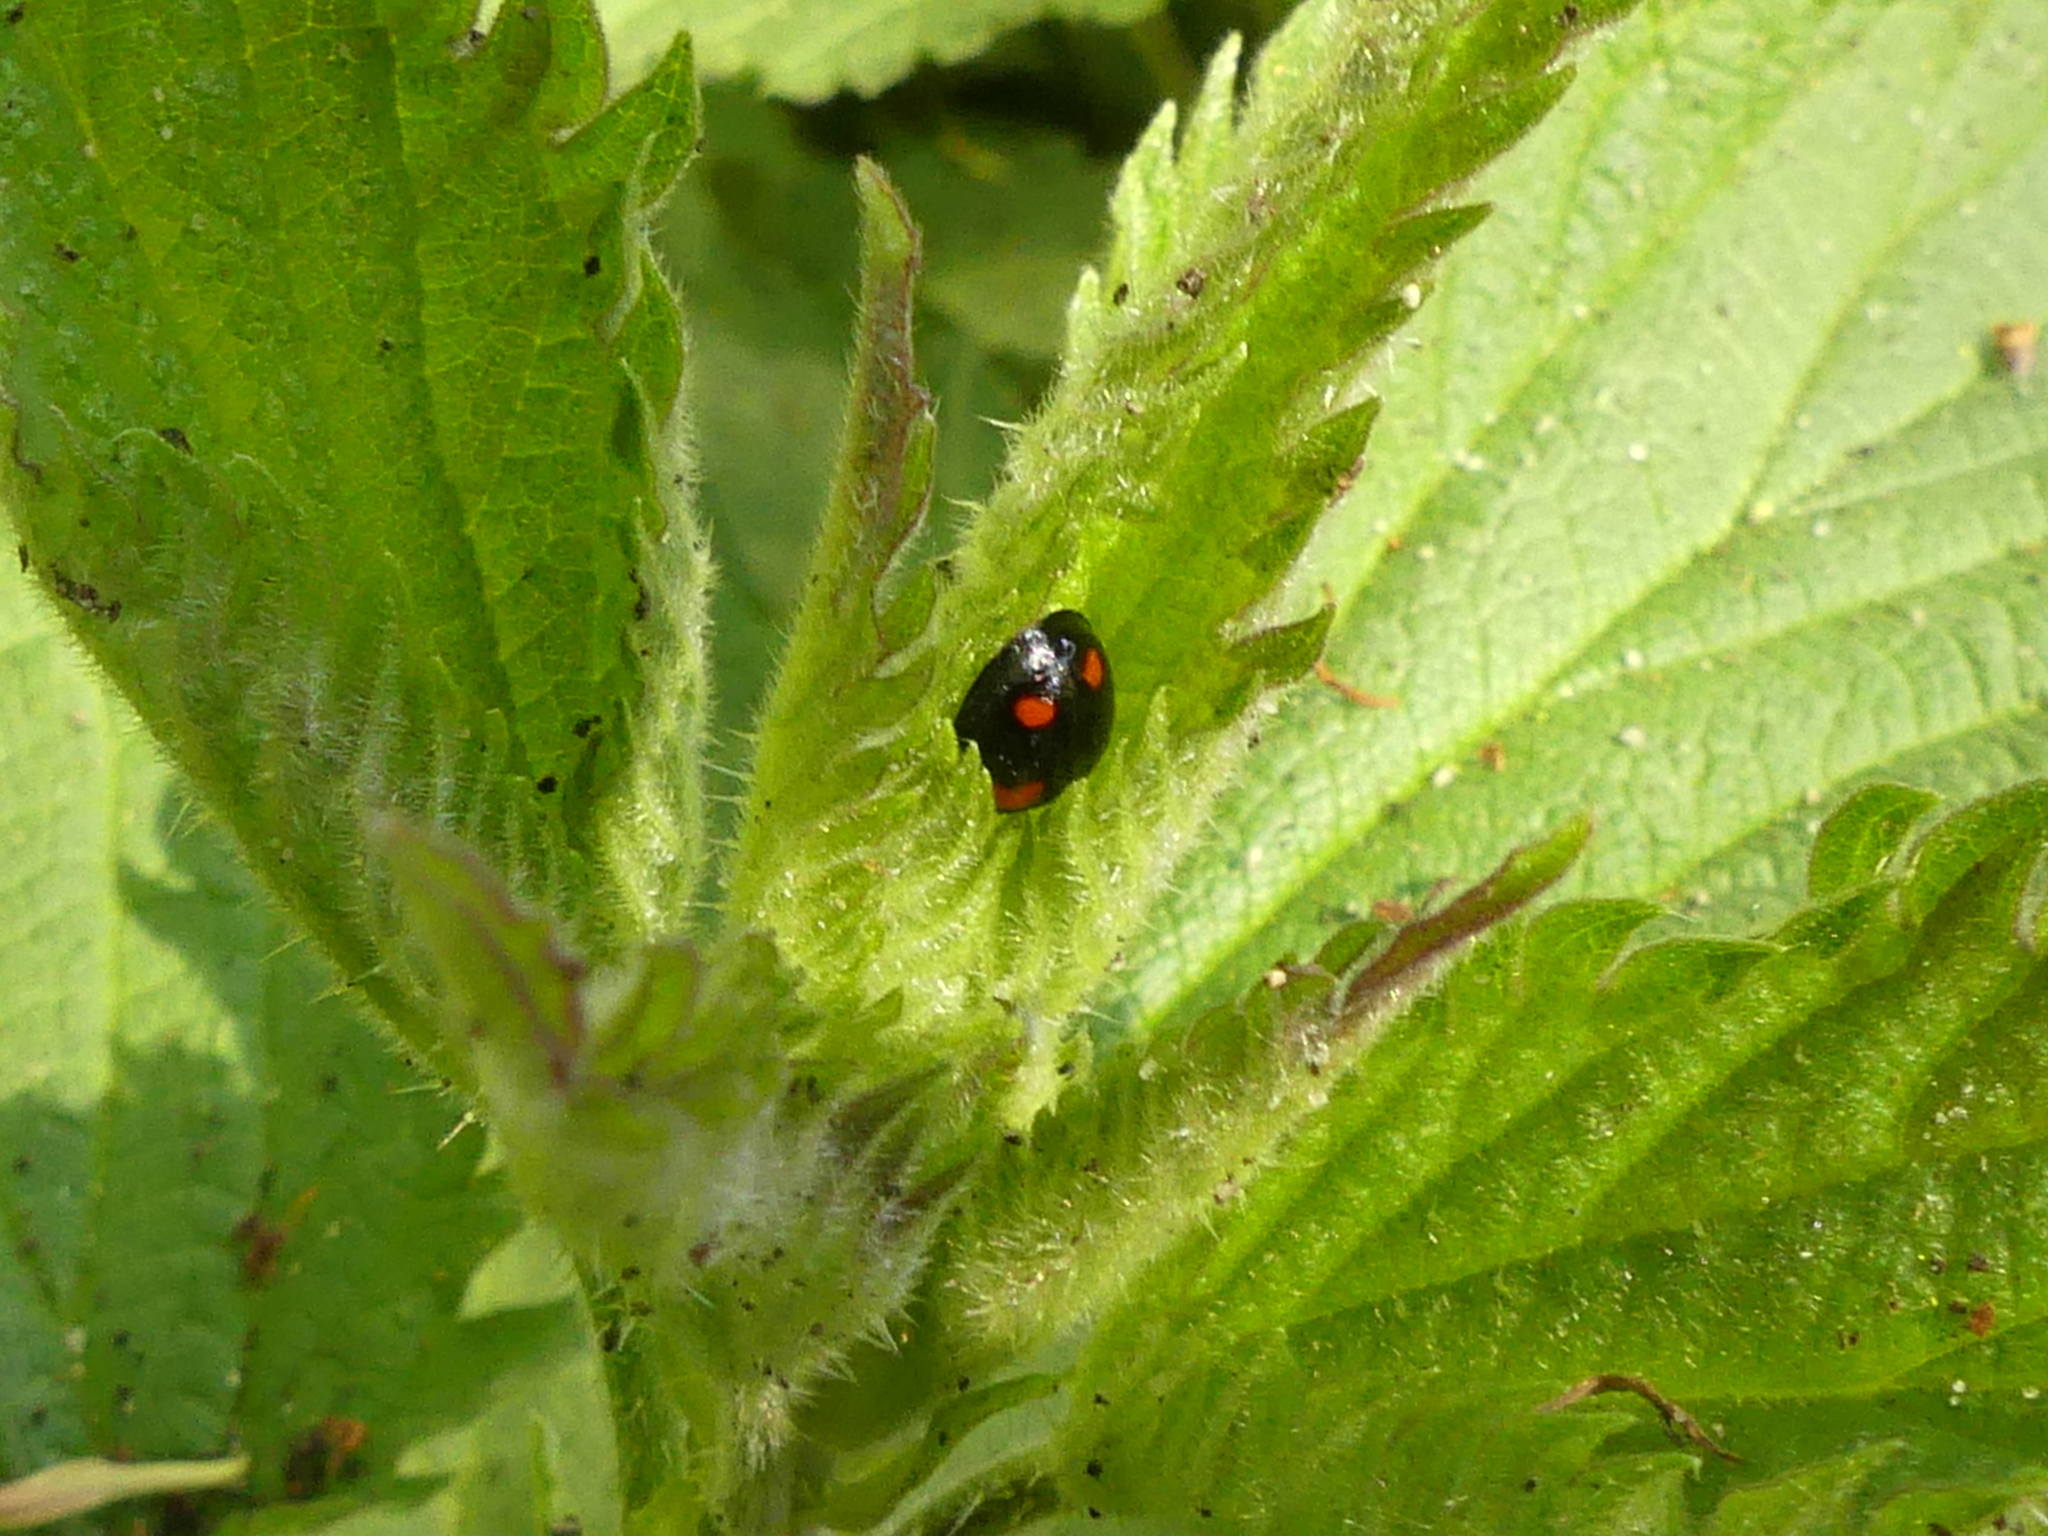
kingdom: Animalia
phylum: Arthropoda
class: Insecta
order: Coleoptera
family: Coccinellidae
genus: Brumus
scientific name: Brumus quadripustulatus
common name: Ladybird beetle
